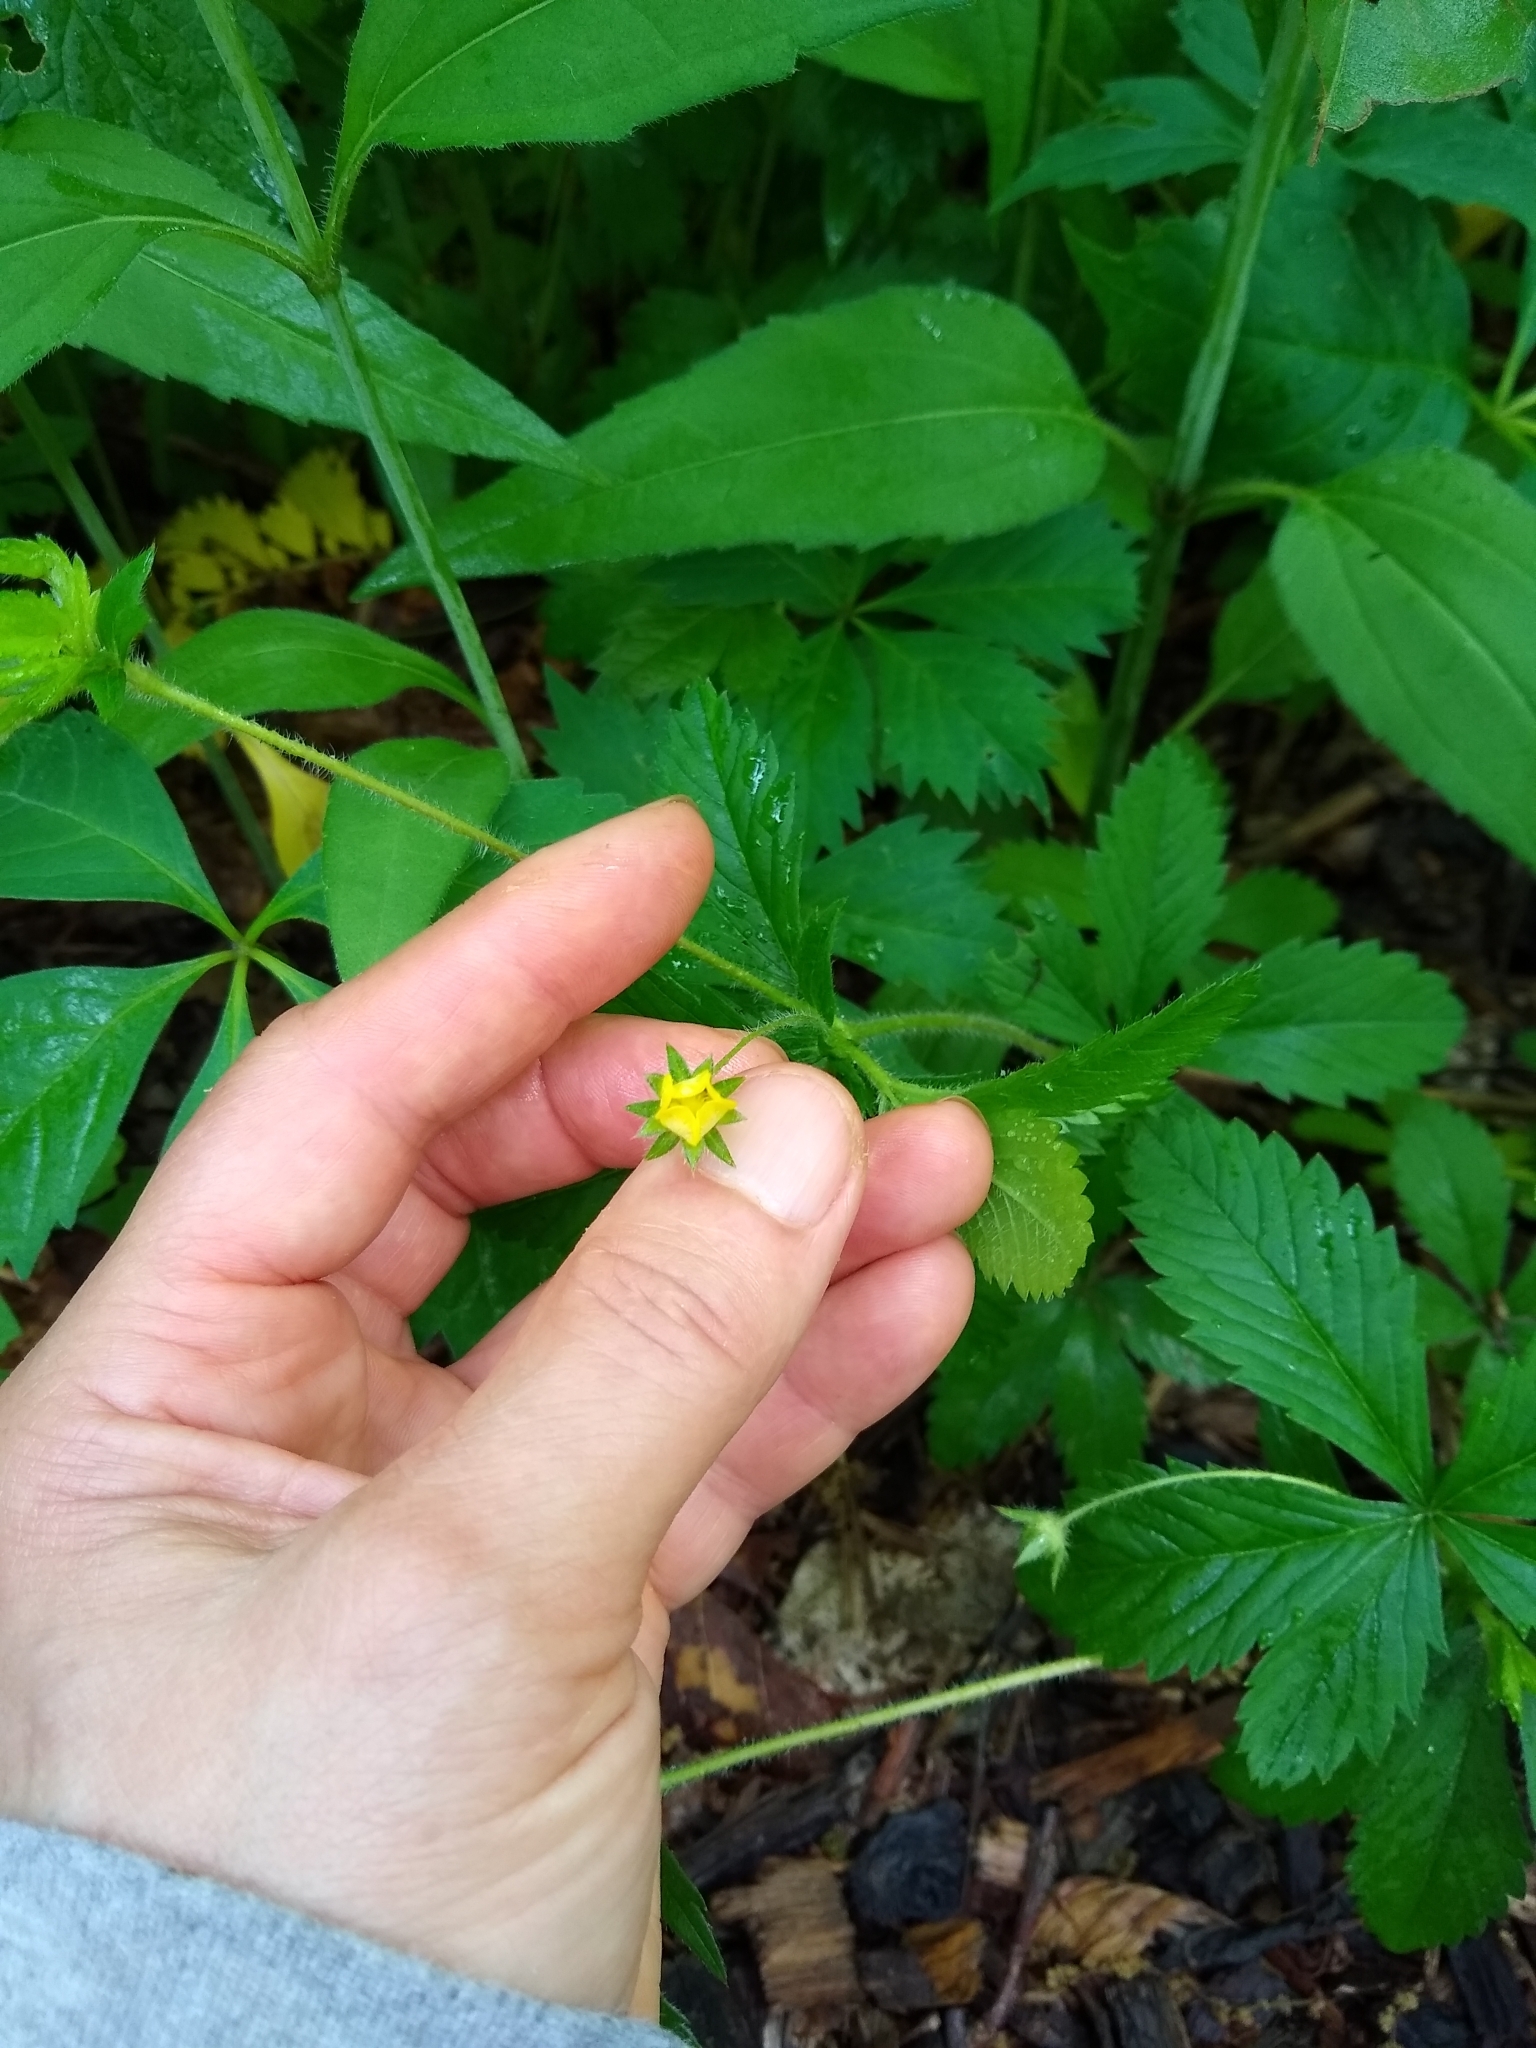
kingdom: Plantae
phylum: Tracheophyta
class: Magnoliopsida
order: Rosales
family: Rosaceae
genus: Potentilla
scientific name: Potentilla simplex
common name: Old field cinquefoil
